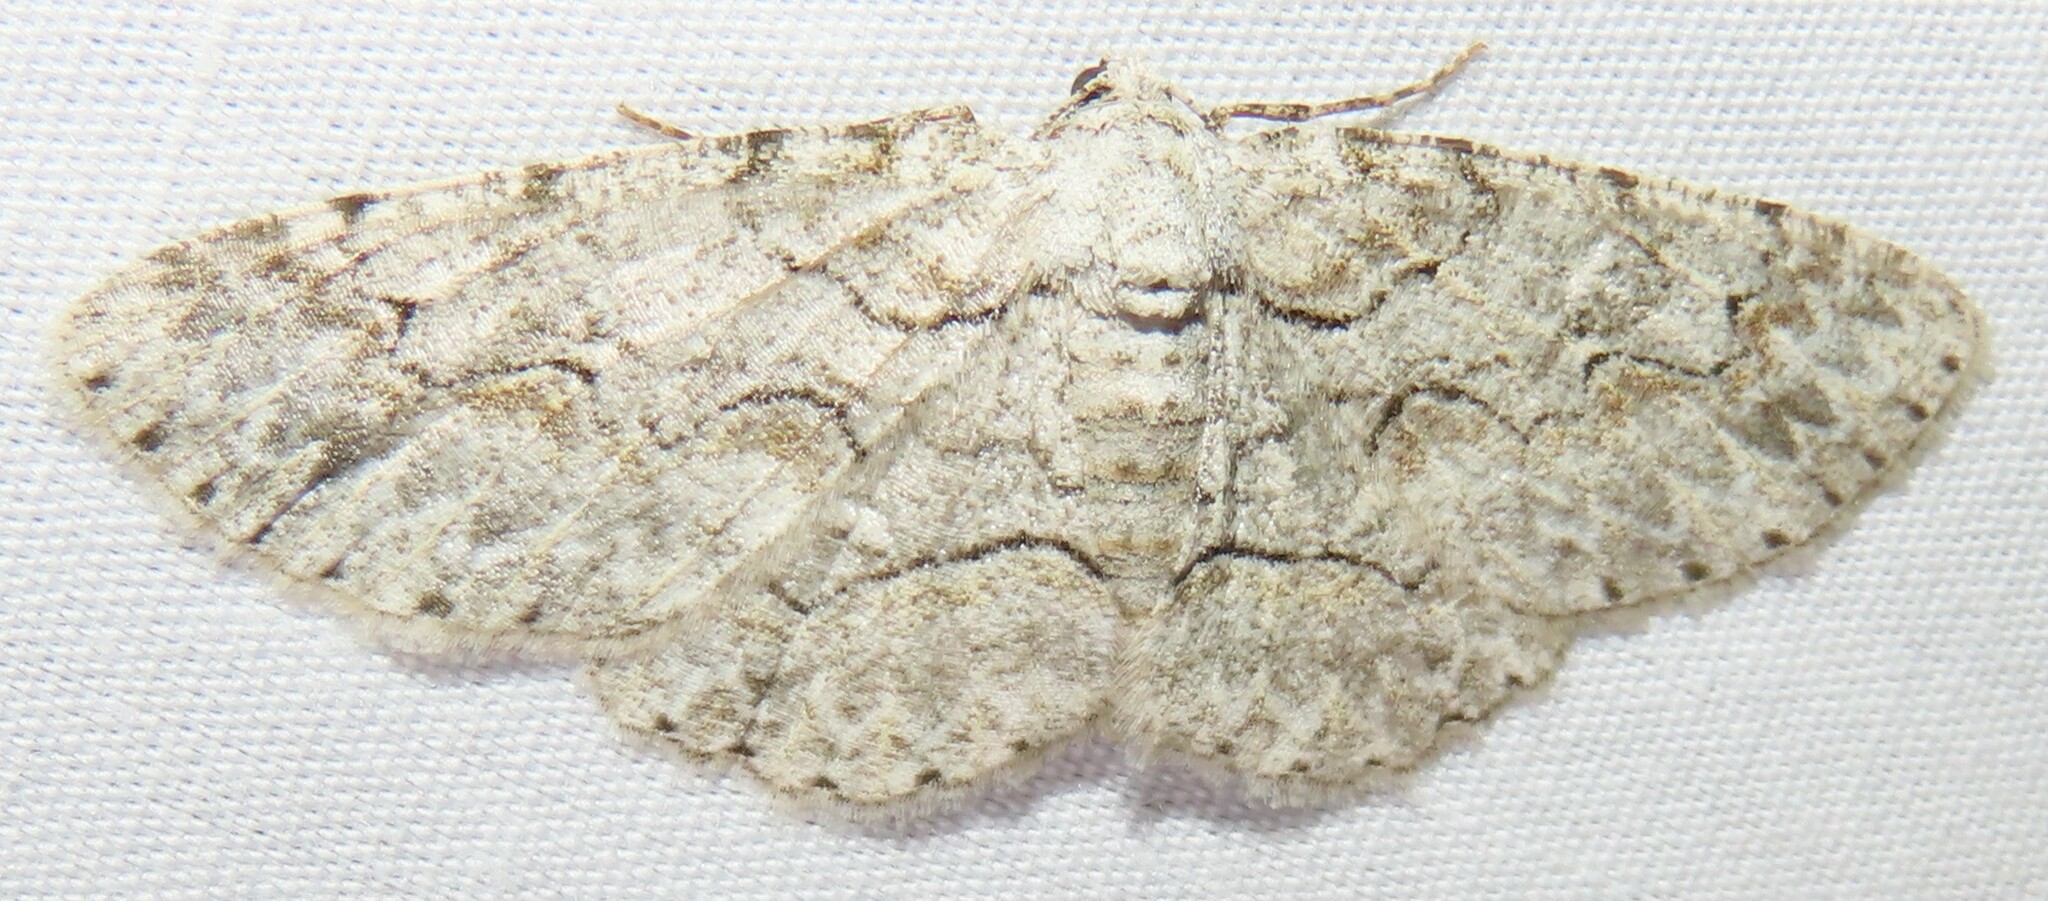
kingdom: Animalia
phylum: Arthropoda
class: Insecta
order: Lepidoptera
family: Geometridae
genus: Iridopsis
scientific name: Iridopsis defectaria
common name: Brown-shaded gray
